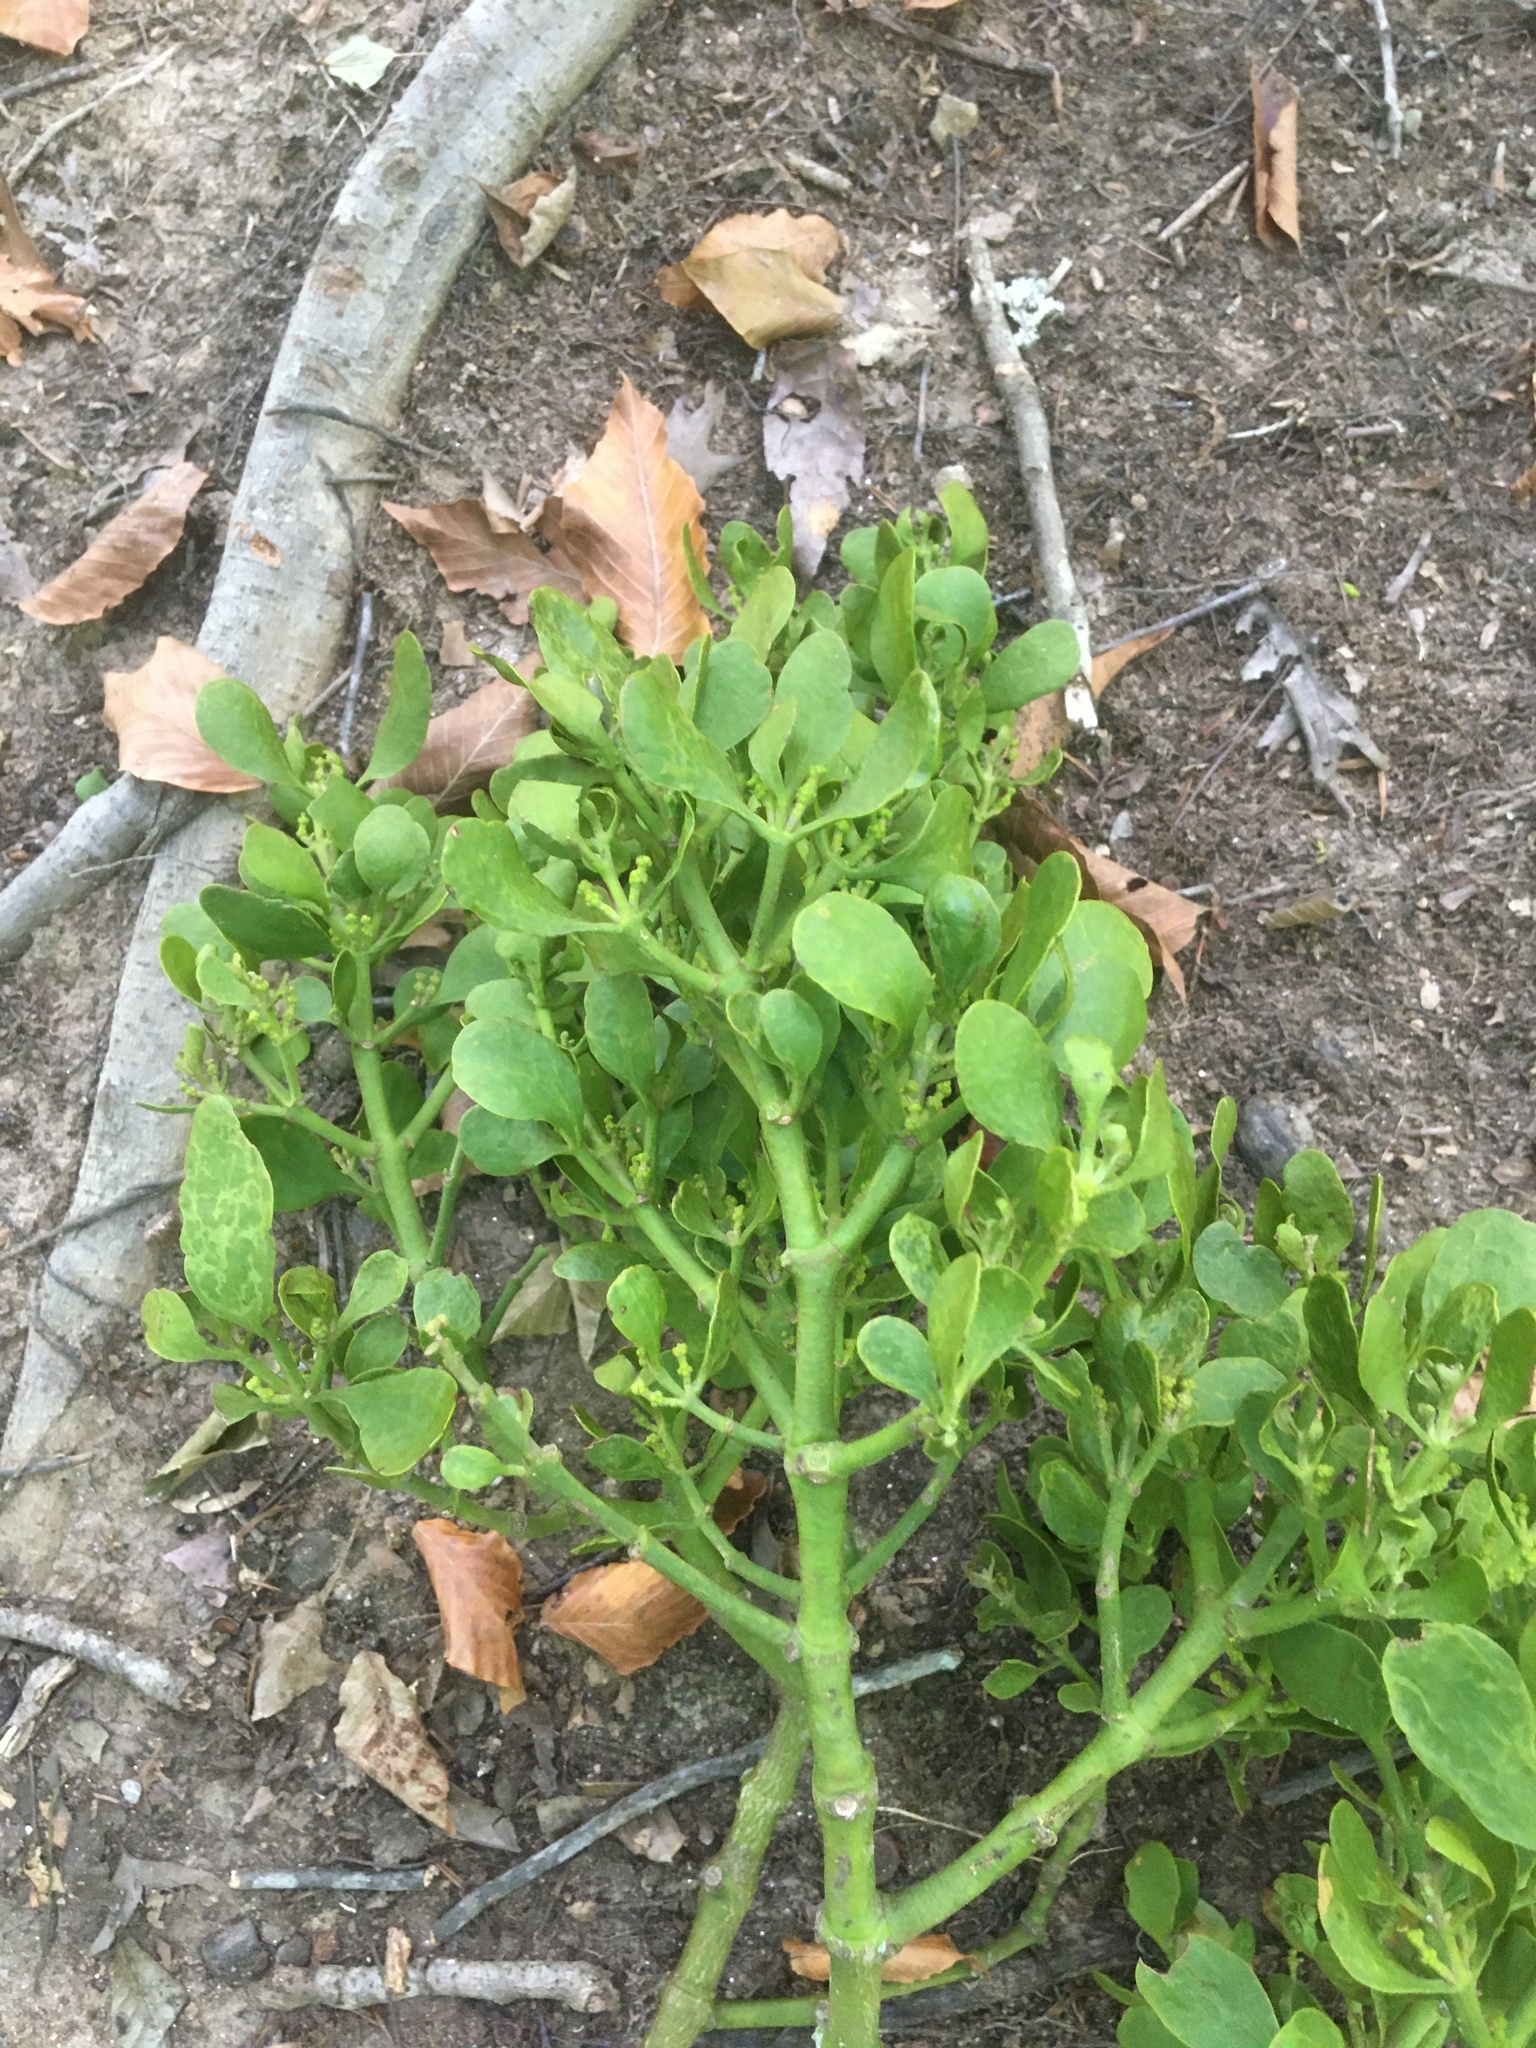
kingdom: Plantae
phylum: Tracheophyta
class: Magnoliopsida
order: Santalales
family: Viscaceae
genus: Phoradendron
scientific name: Phoradendron leucarpum
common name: Pacific mistletoe
